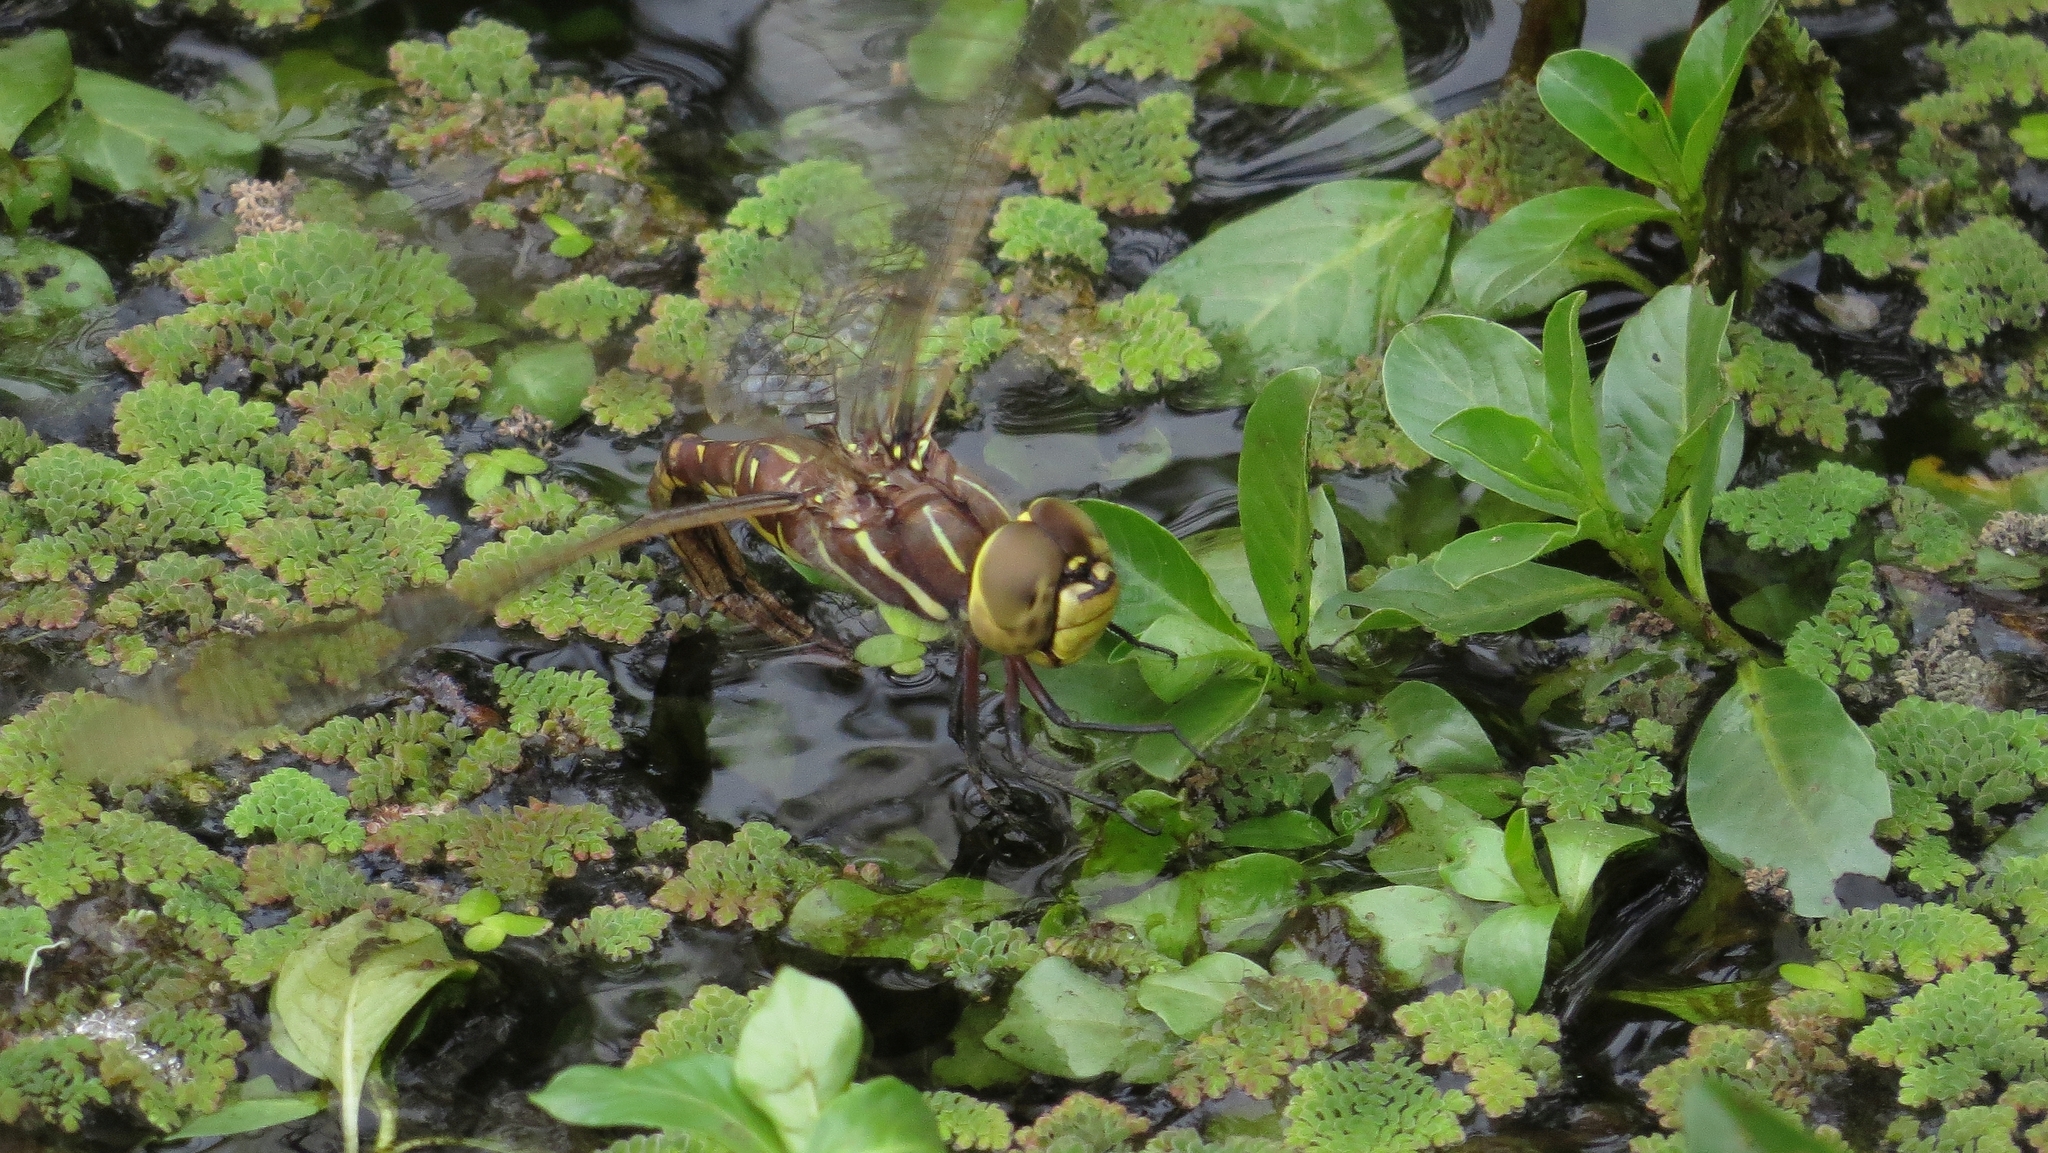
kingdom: Animalia
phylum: Arthropoda
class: Insecta
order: Odonata
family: Aeshnidae
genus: Aeshna
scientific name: Aeshna brevistyla
